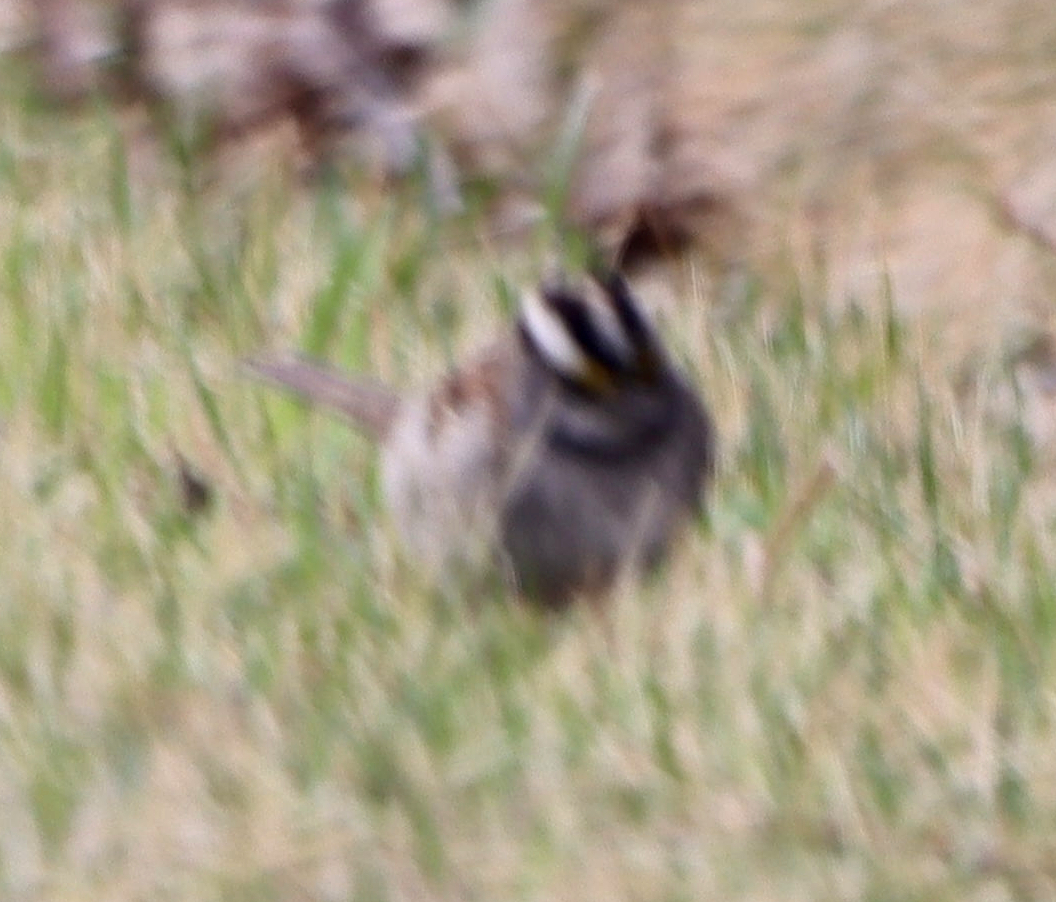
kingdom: Animalia
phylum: Chordata
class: Aves
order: Passeriformes
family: Passerellidae
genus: Zonotrichia
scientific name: Zonotrichia albicollis
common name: White-throated sparrow
